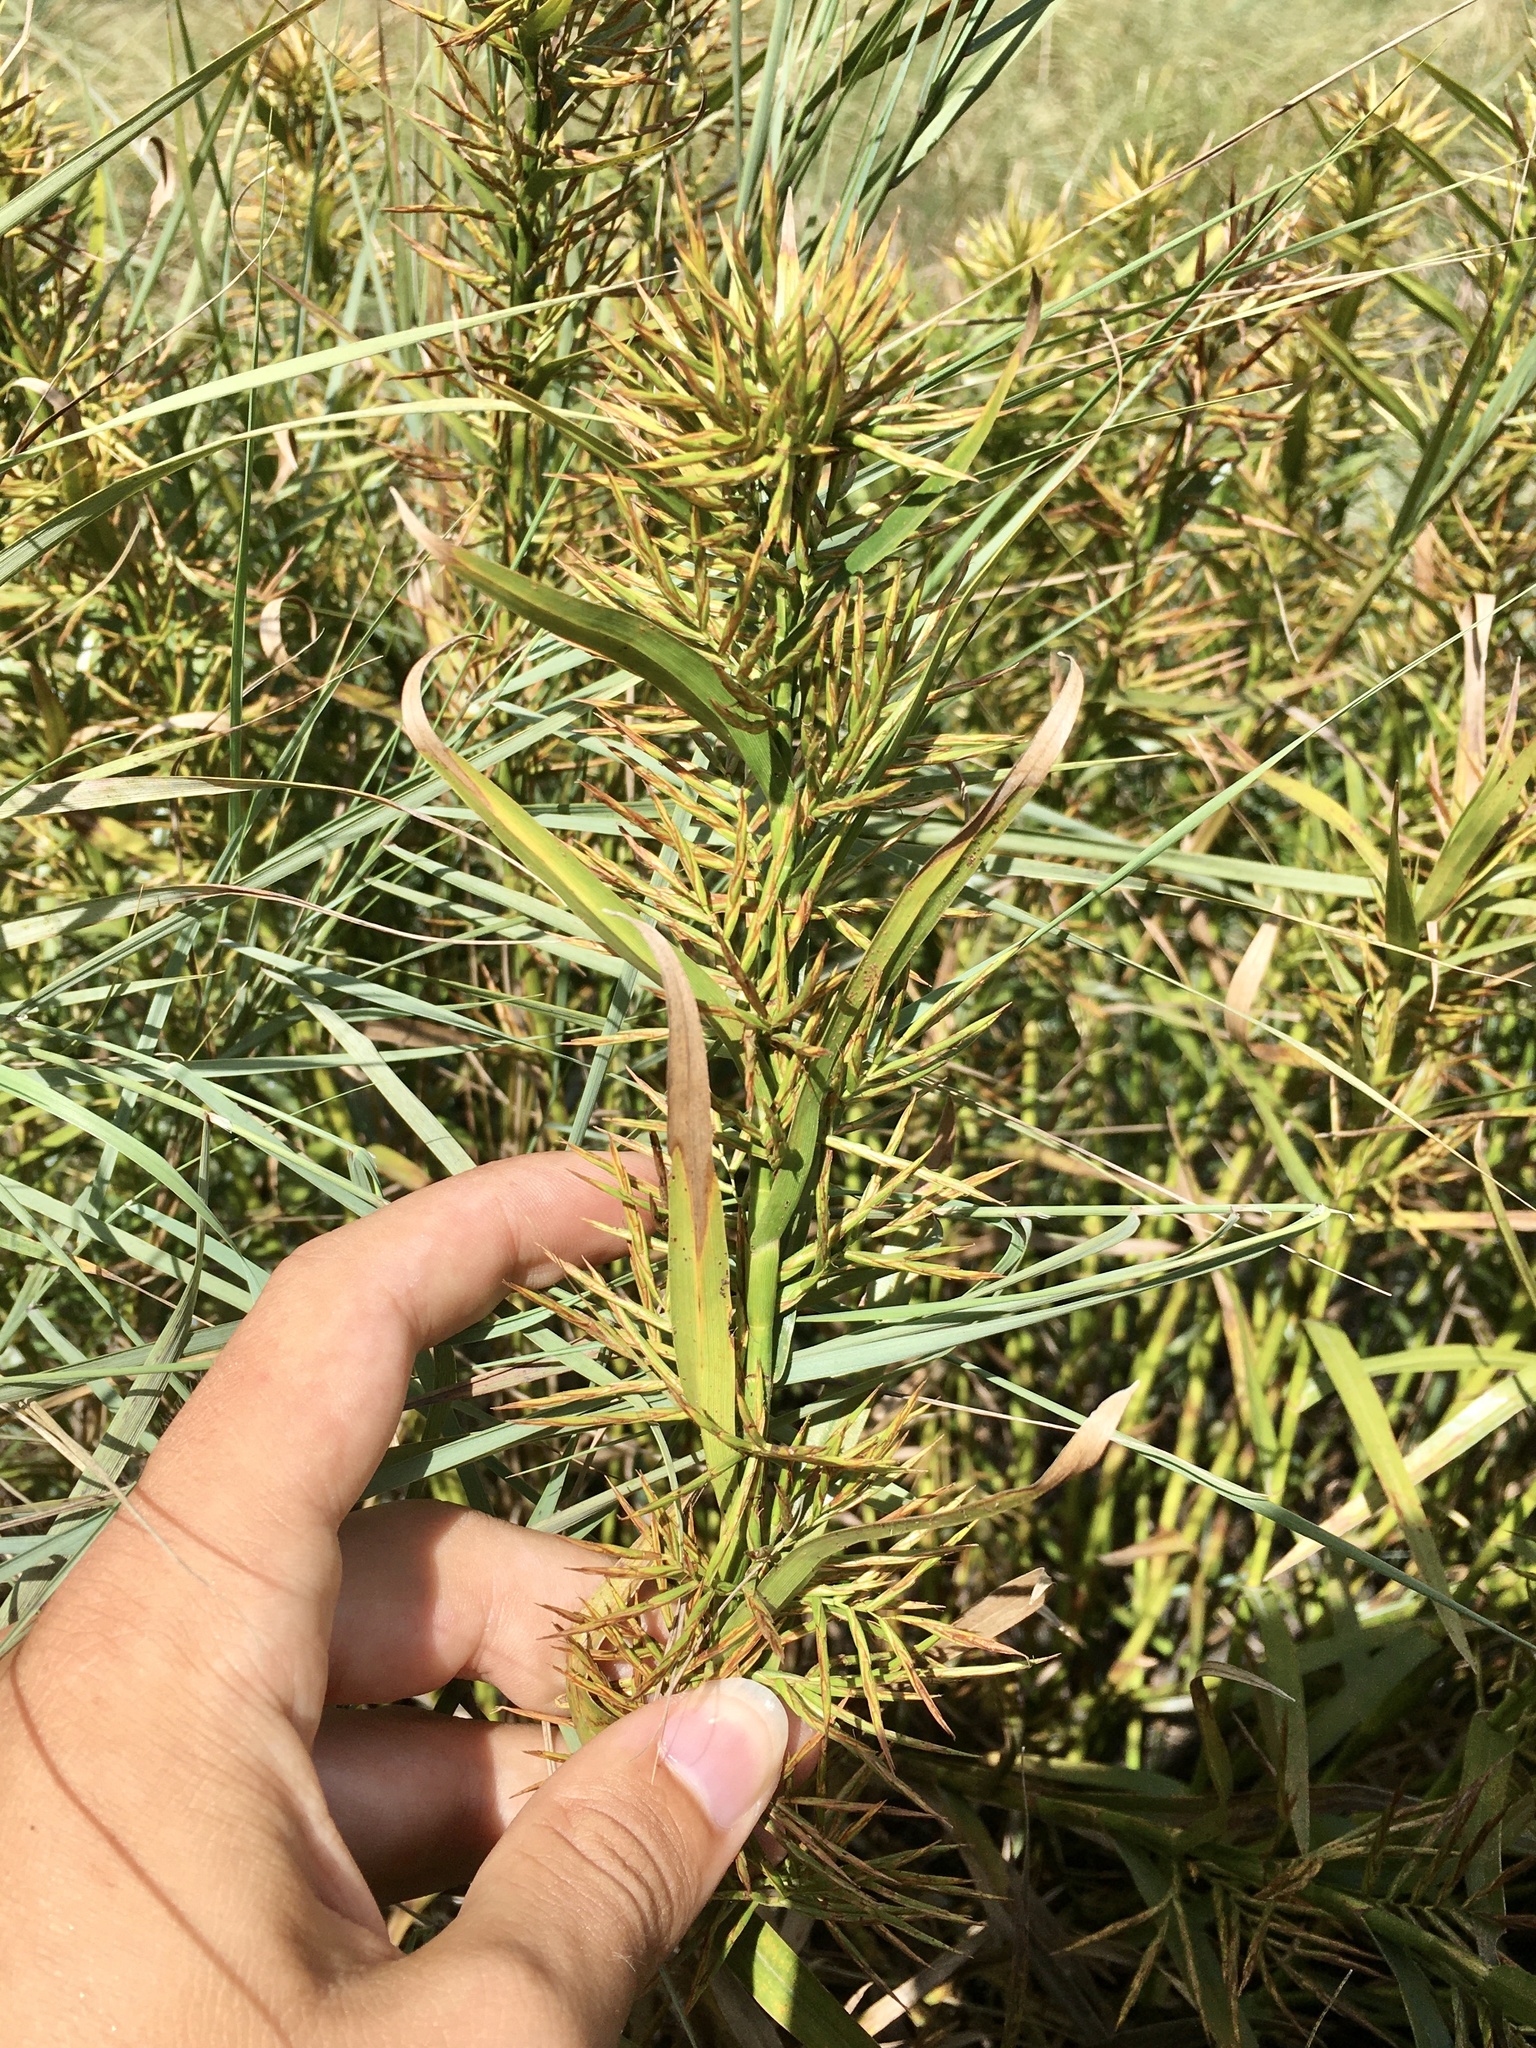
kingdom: Plantae
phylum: Tracheophyta
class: Liliopsida
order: Poales
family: Cyperaceae
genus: Dulichium
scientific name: Dulichium arundinaceum
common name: Three-way sedge
